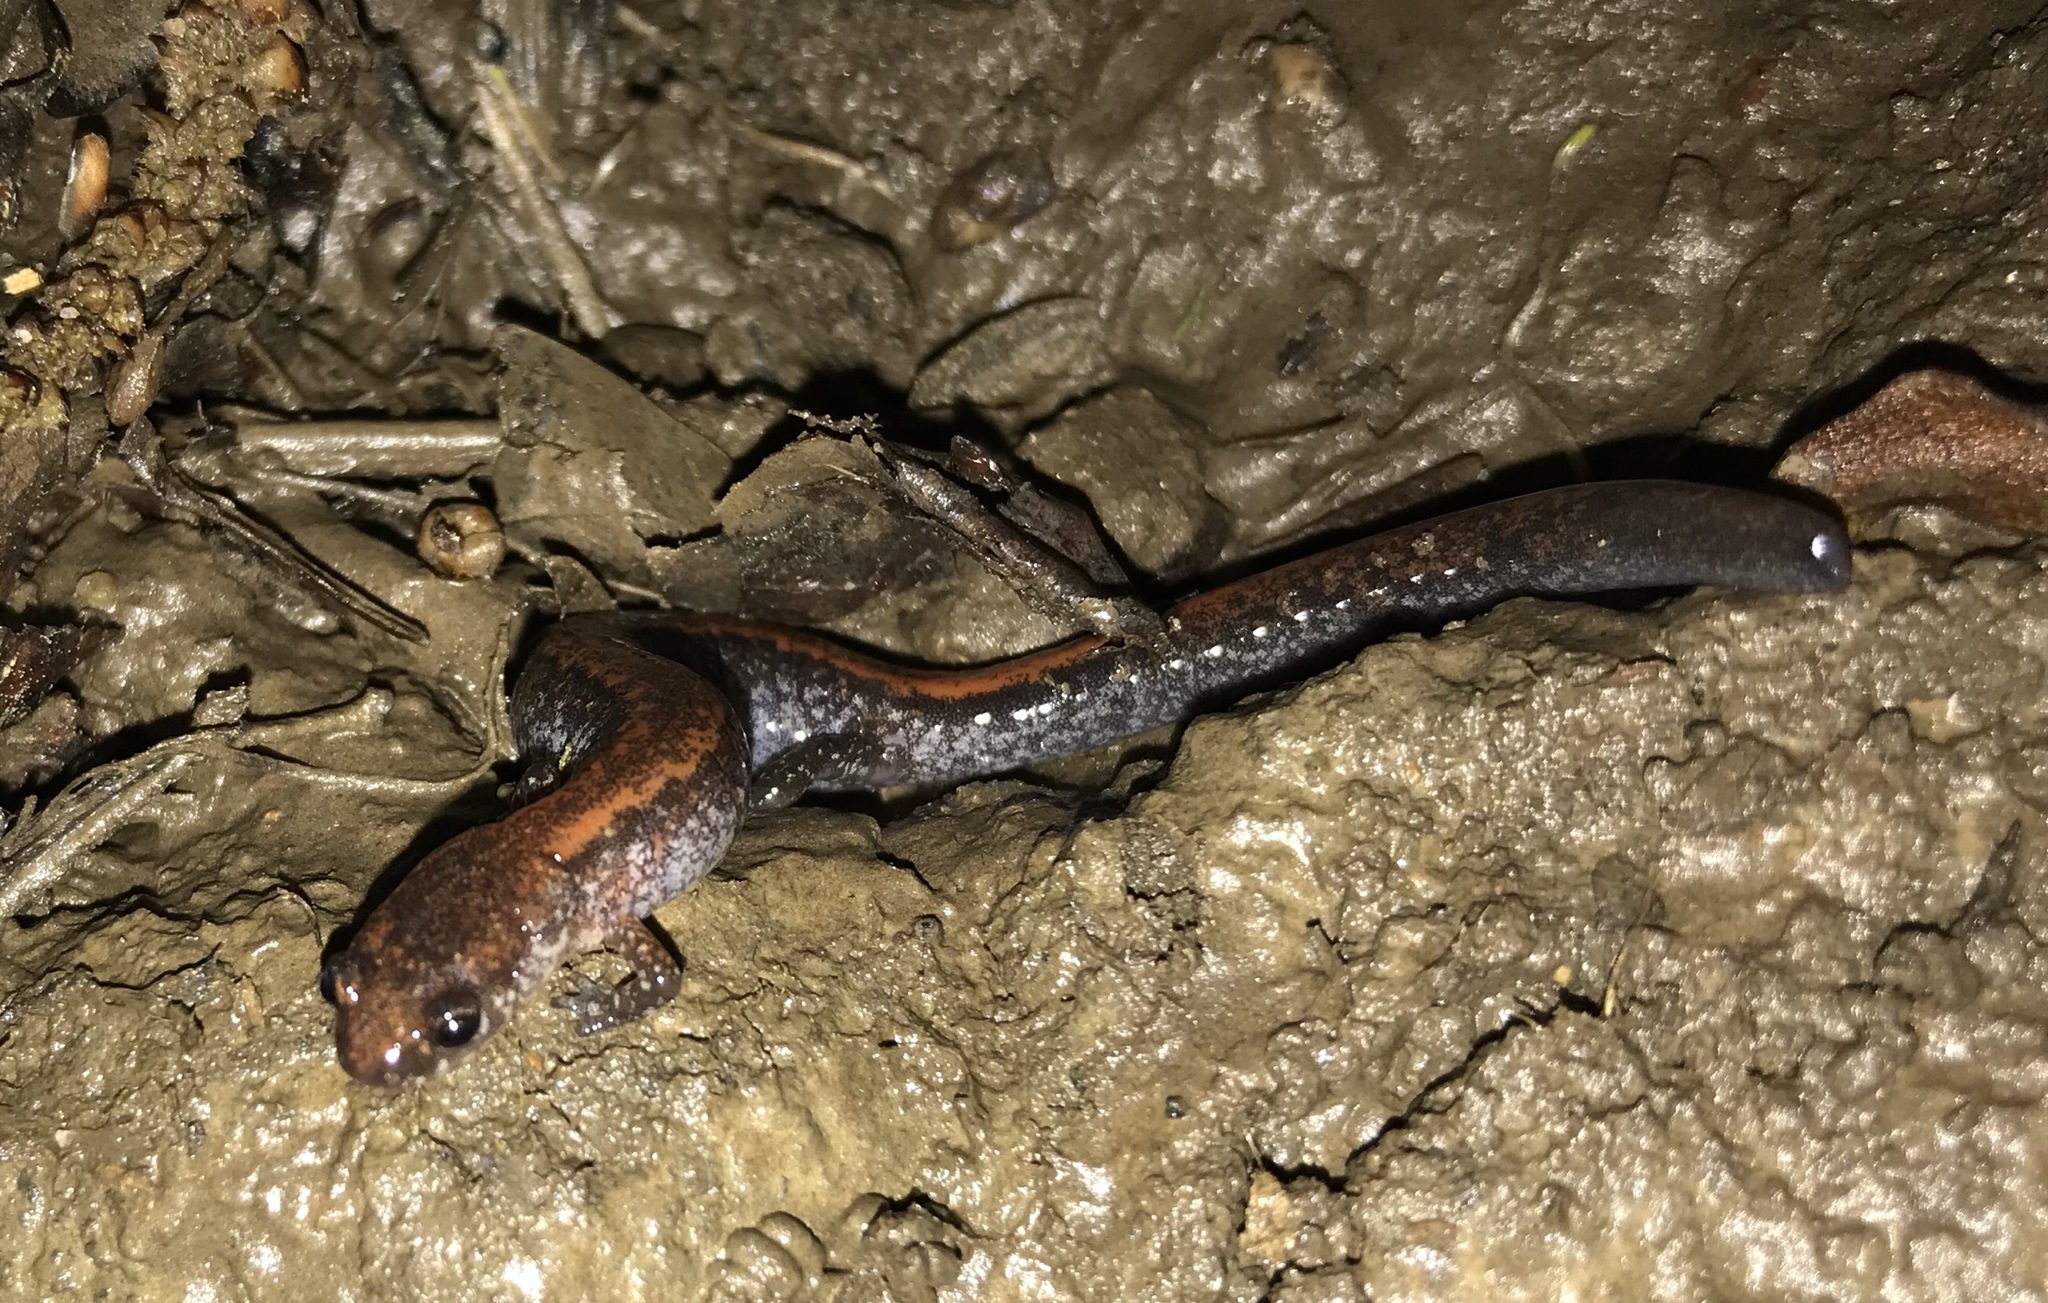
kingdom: Animalia
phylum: Chordata
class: Amphibia
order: Caudata
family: Plethodontidae
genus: Plethodon
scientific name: Plethodon cinereus
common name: Redback salamander
